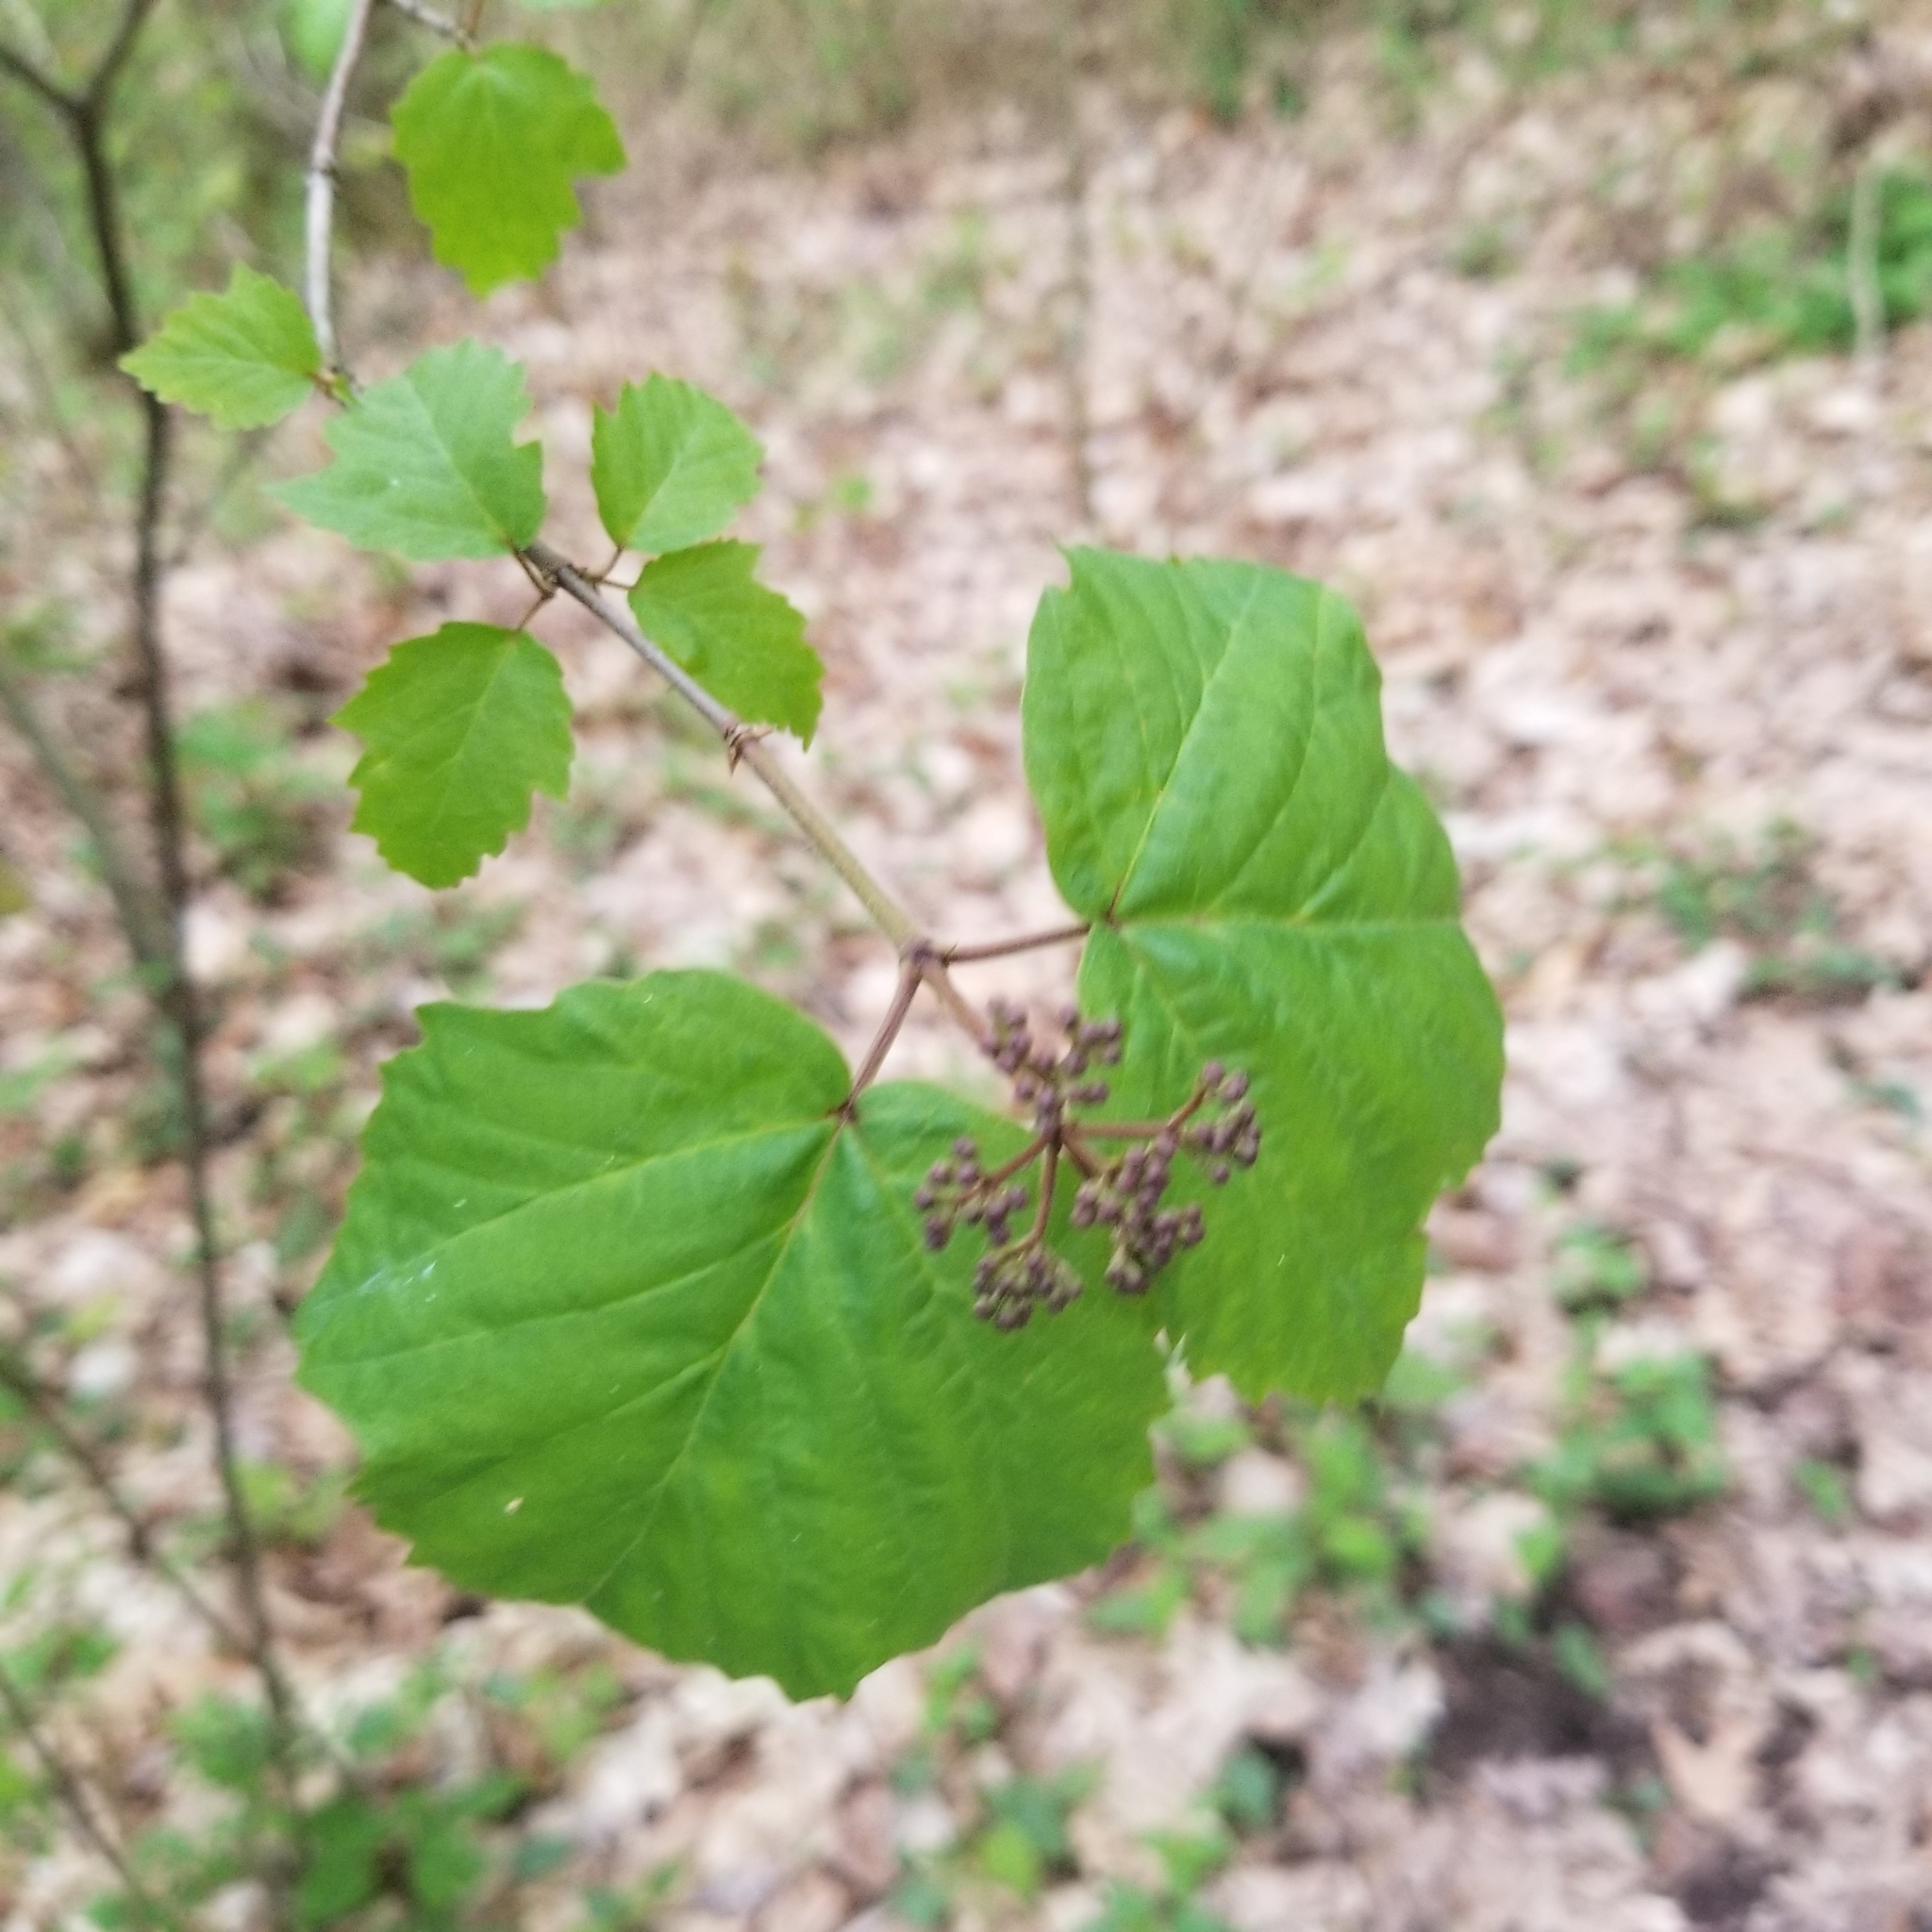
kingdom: Plantae
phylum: Tracheophyta
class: Magnoliopsida
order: Dipsacales
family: Viburnaceae
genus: Viburnum
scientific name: Viburnum acerifolium
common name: Dockmackie
